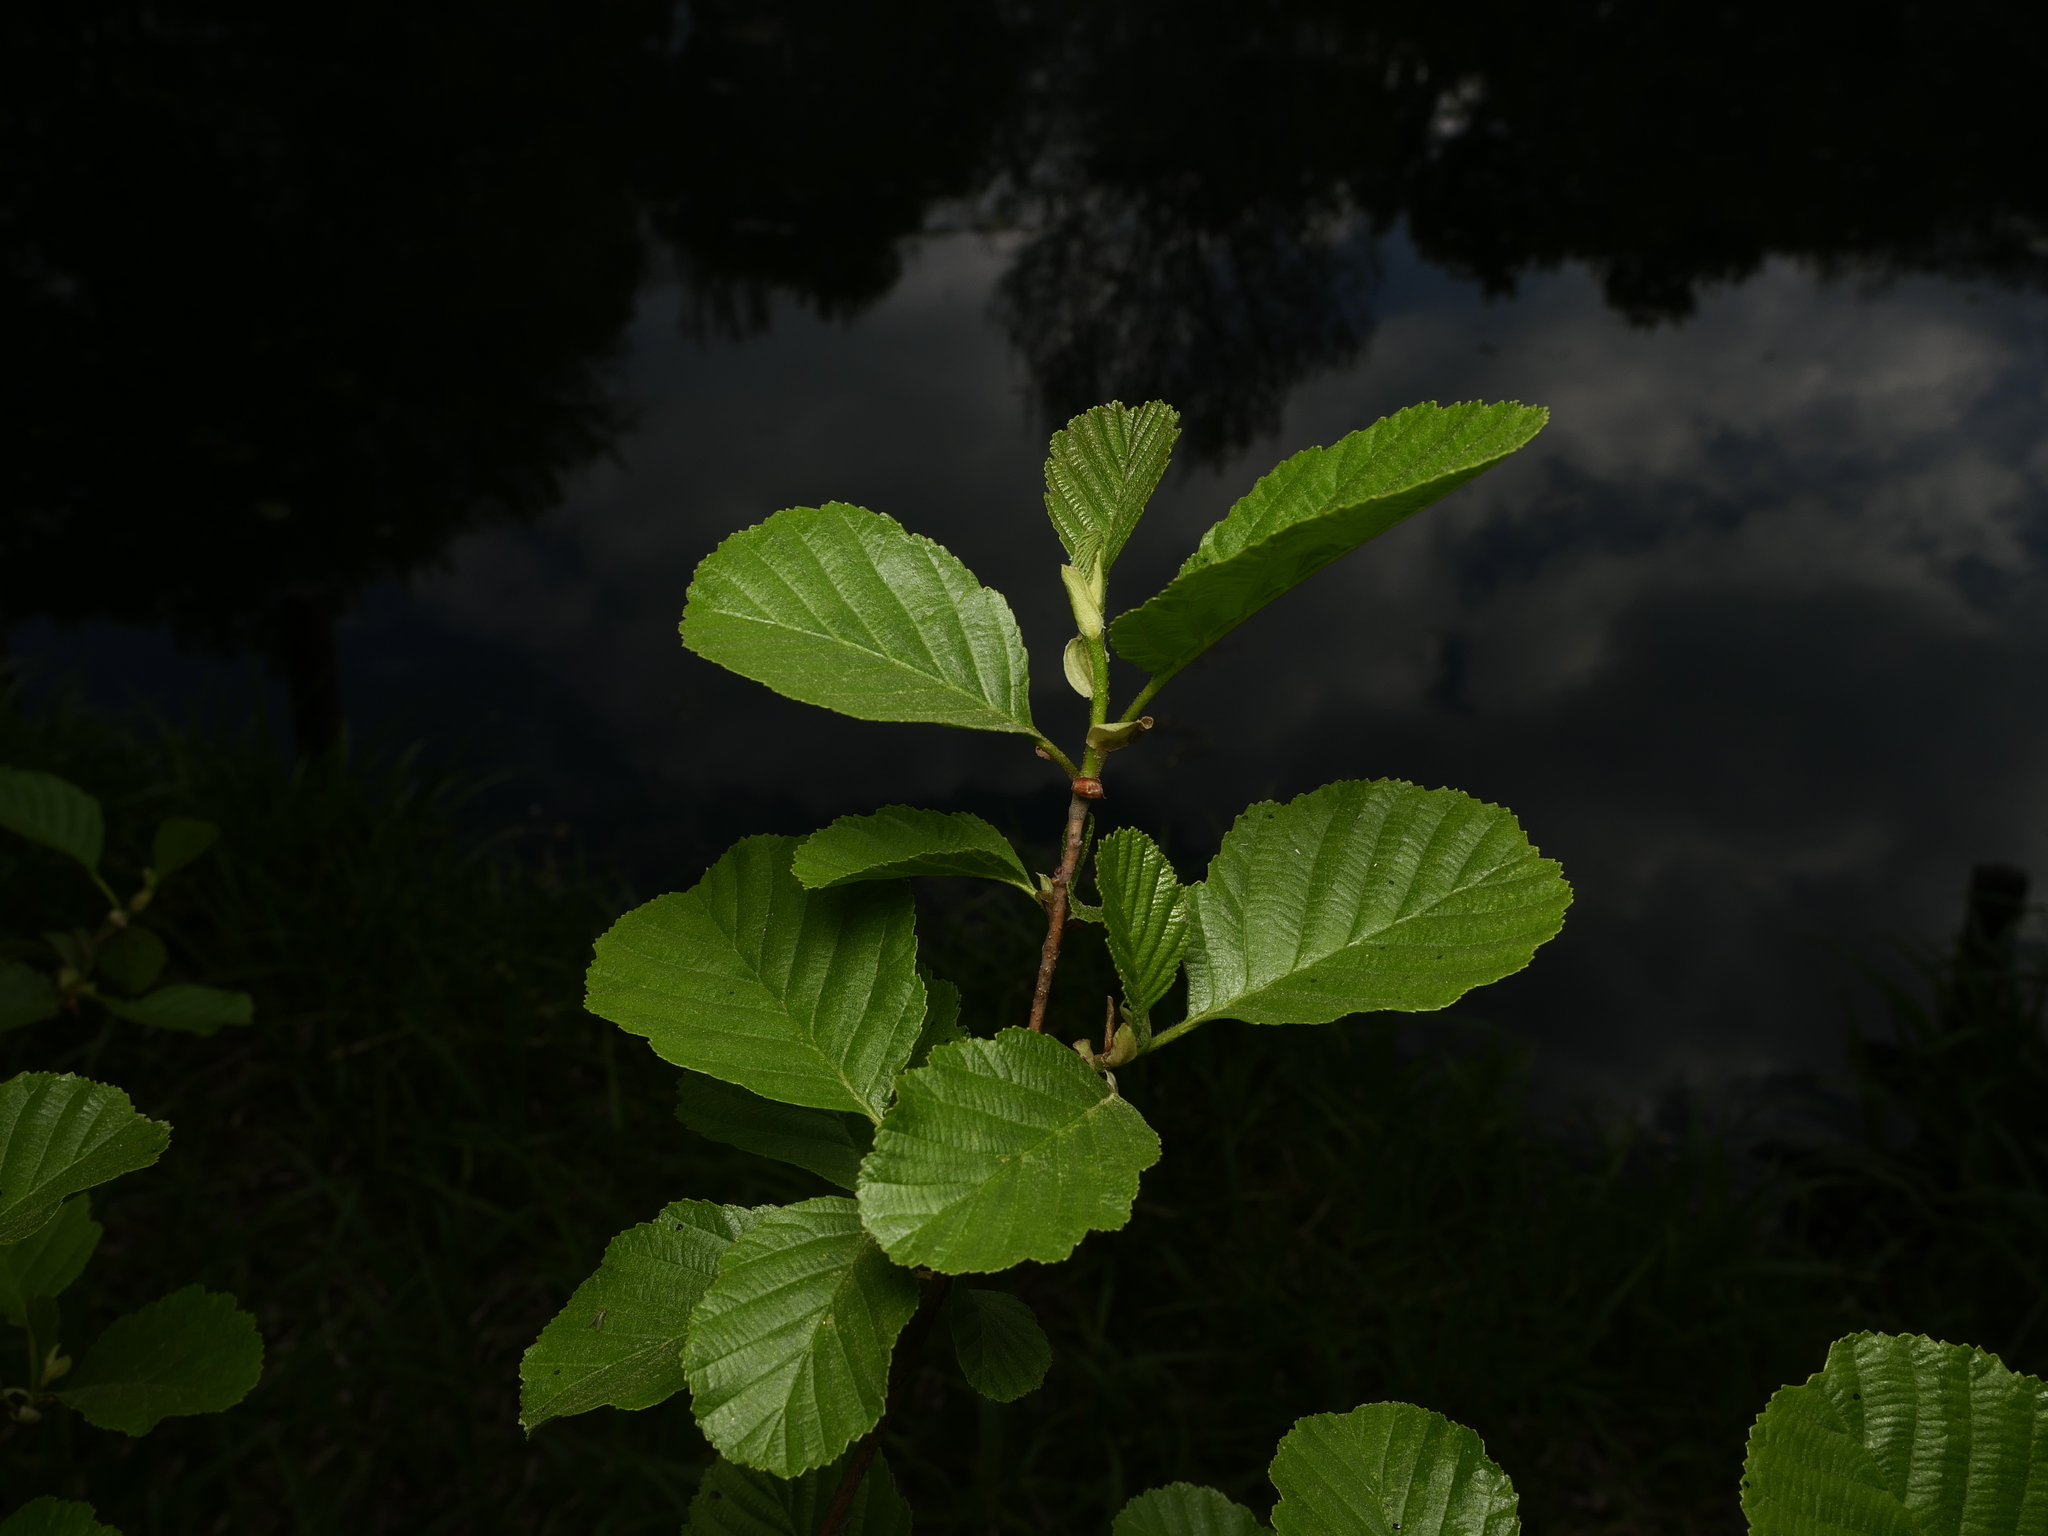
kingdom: Plantae
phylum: Tracheophyta
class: Magnoliopsida
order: Fagales
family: Betulaceae
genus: Alnus
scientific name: Alnus glutinosa
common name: Black alder
